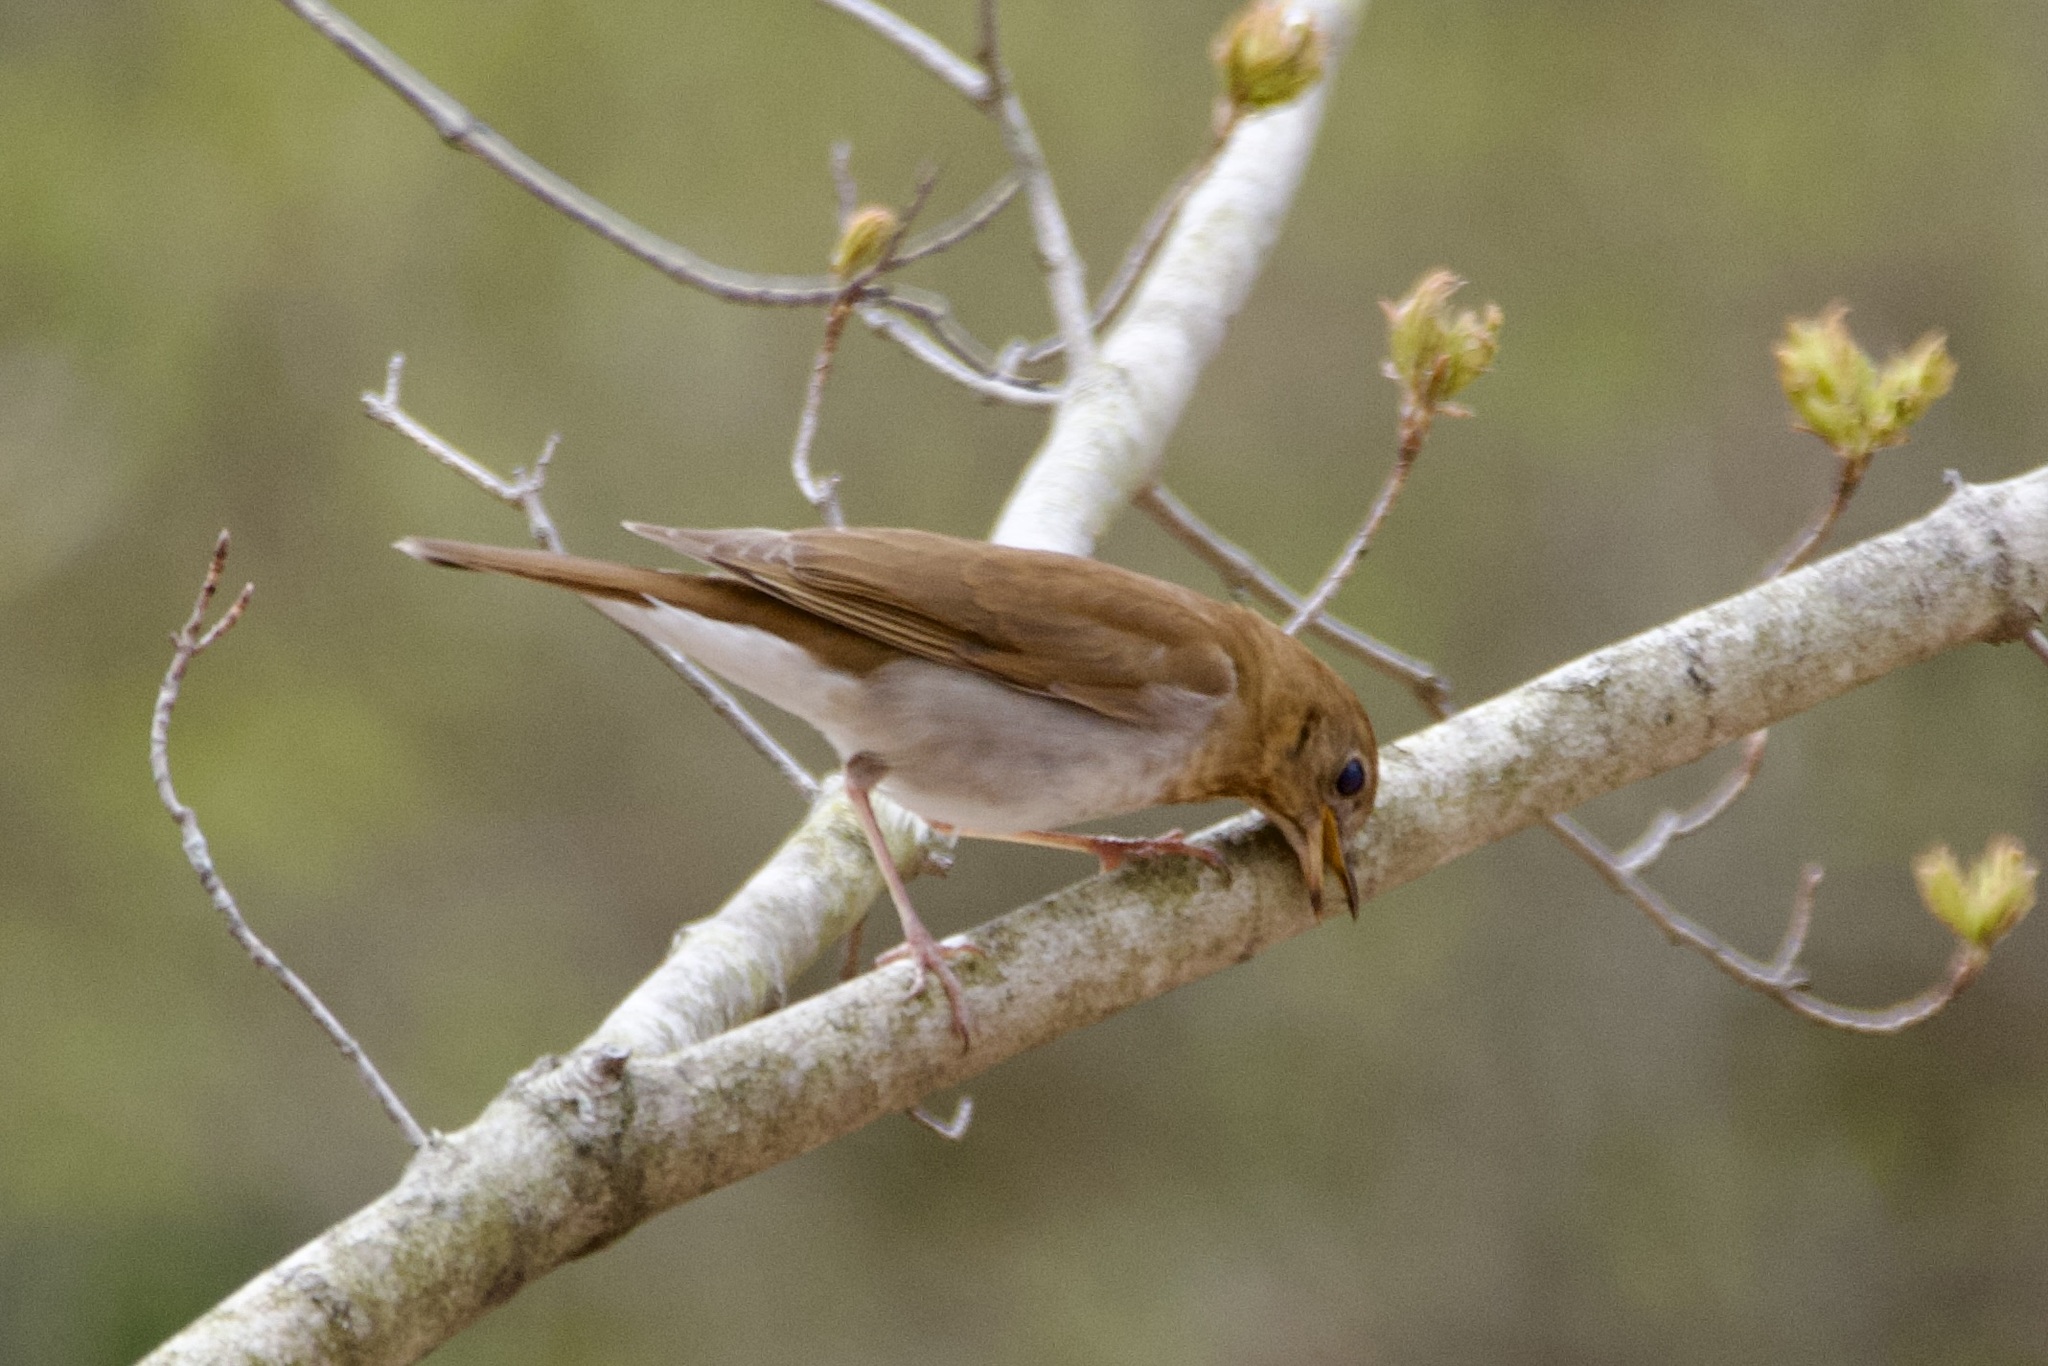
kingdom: Animalia
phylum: Chordata
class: Aves
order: Passeriformes
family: Turdidae
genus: Catharus
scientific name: Catharus fuscescens
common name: Veery
